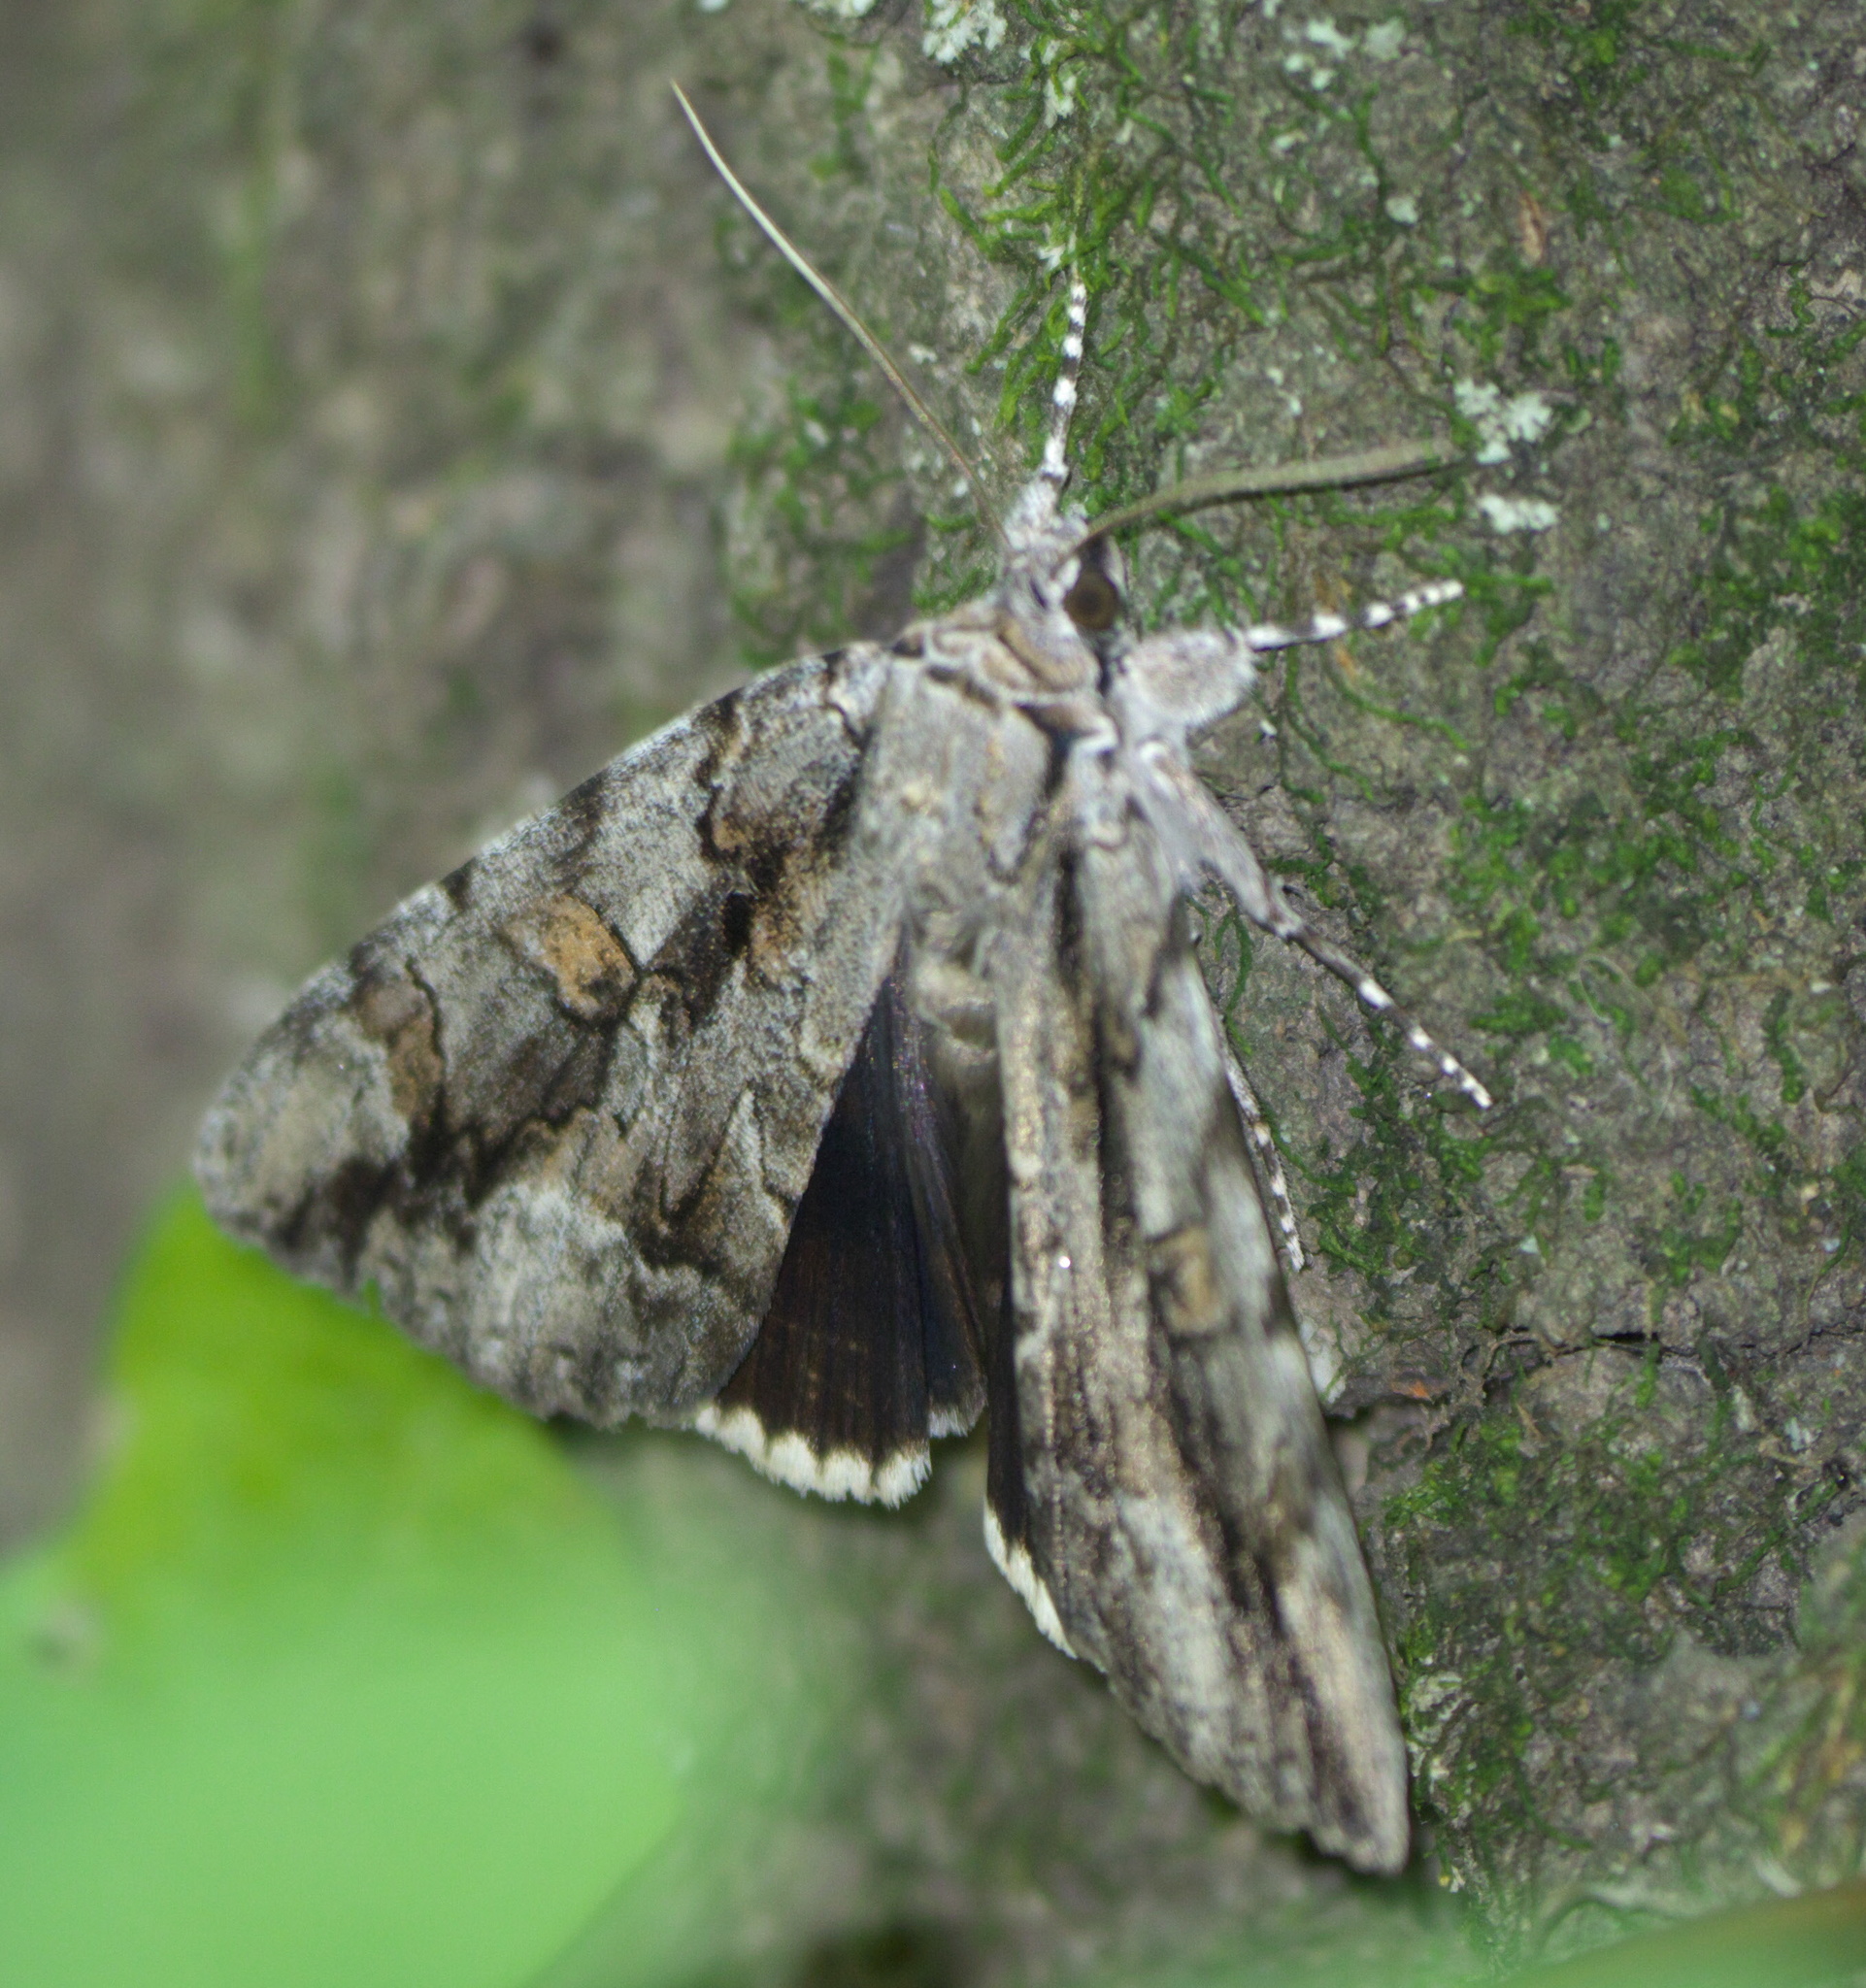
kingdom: Animalia
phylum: Arthropoda
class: Insecta
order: Lepidoptera
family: Erebidae
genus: Catocala
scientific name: Catocala flebilis
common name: Mournful underwing
